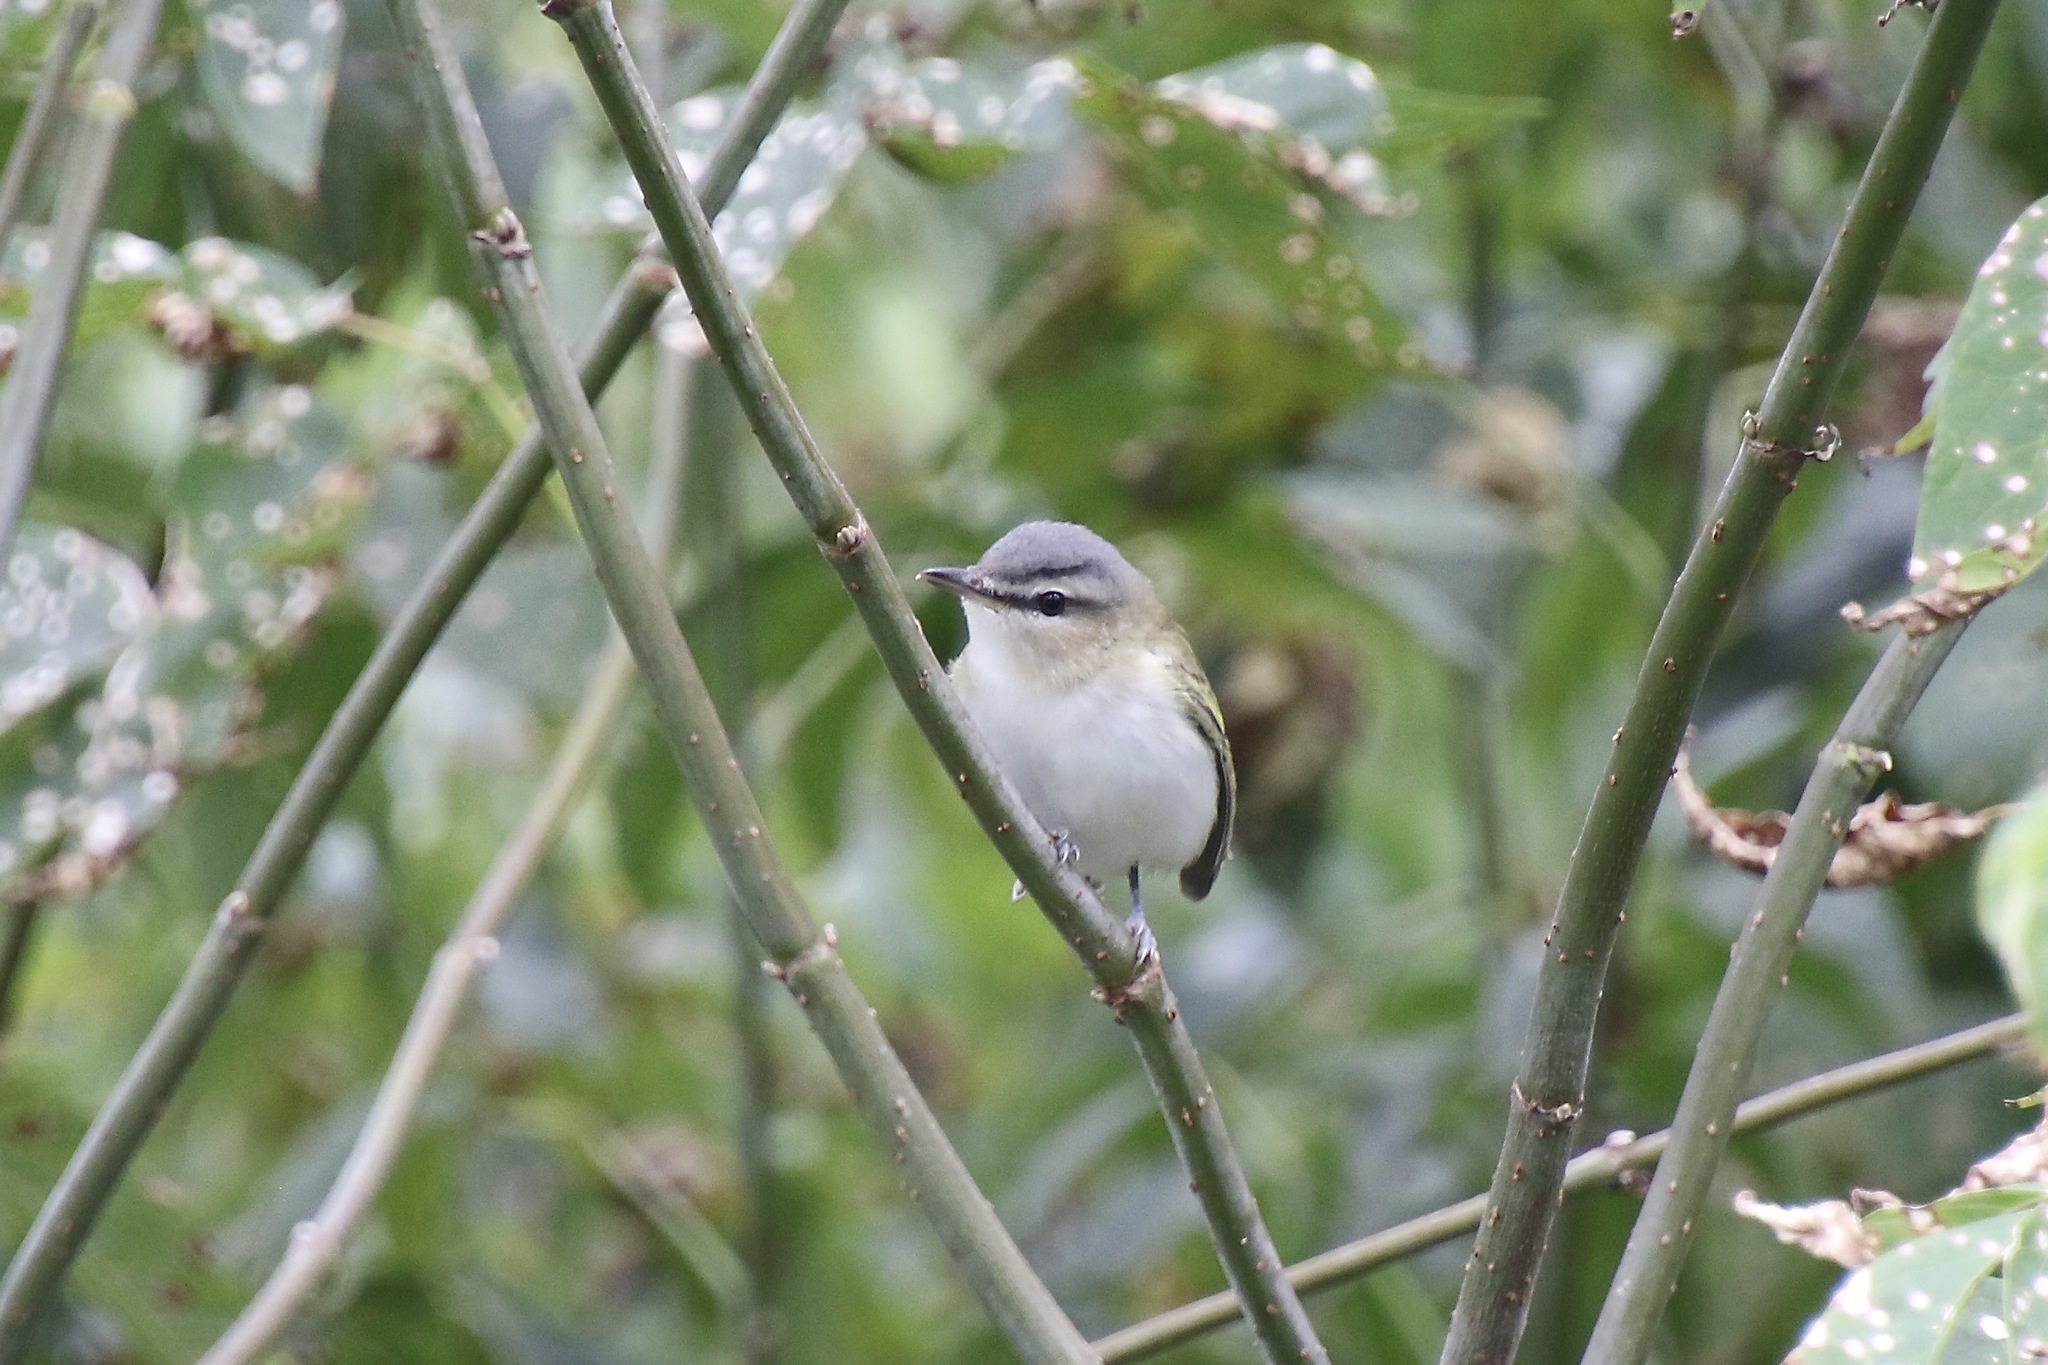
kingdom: Animalia
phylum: Chordata
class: Aves
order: Passeriformes
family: Vireonidae
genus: Vireo
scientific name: Vireo olivaceus
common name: Red-eyed vireo
